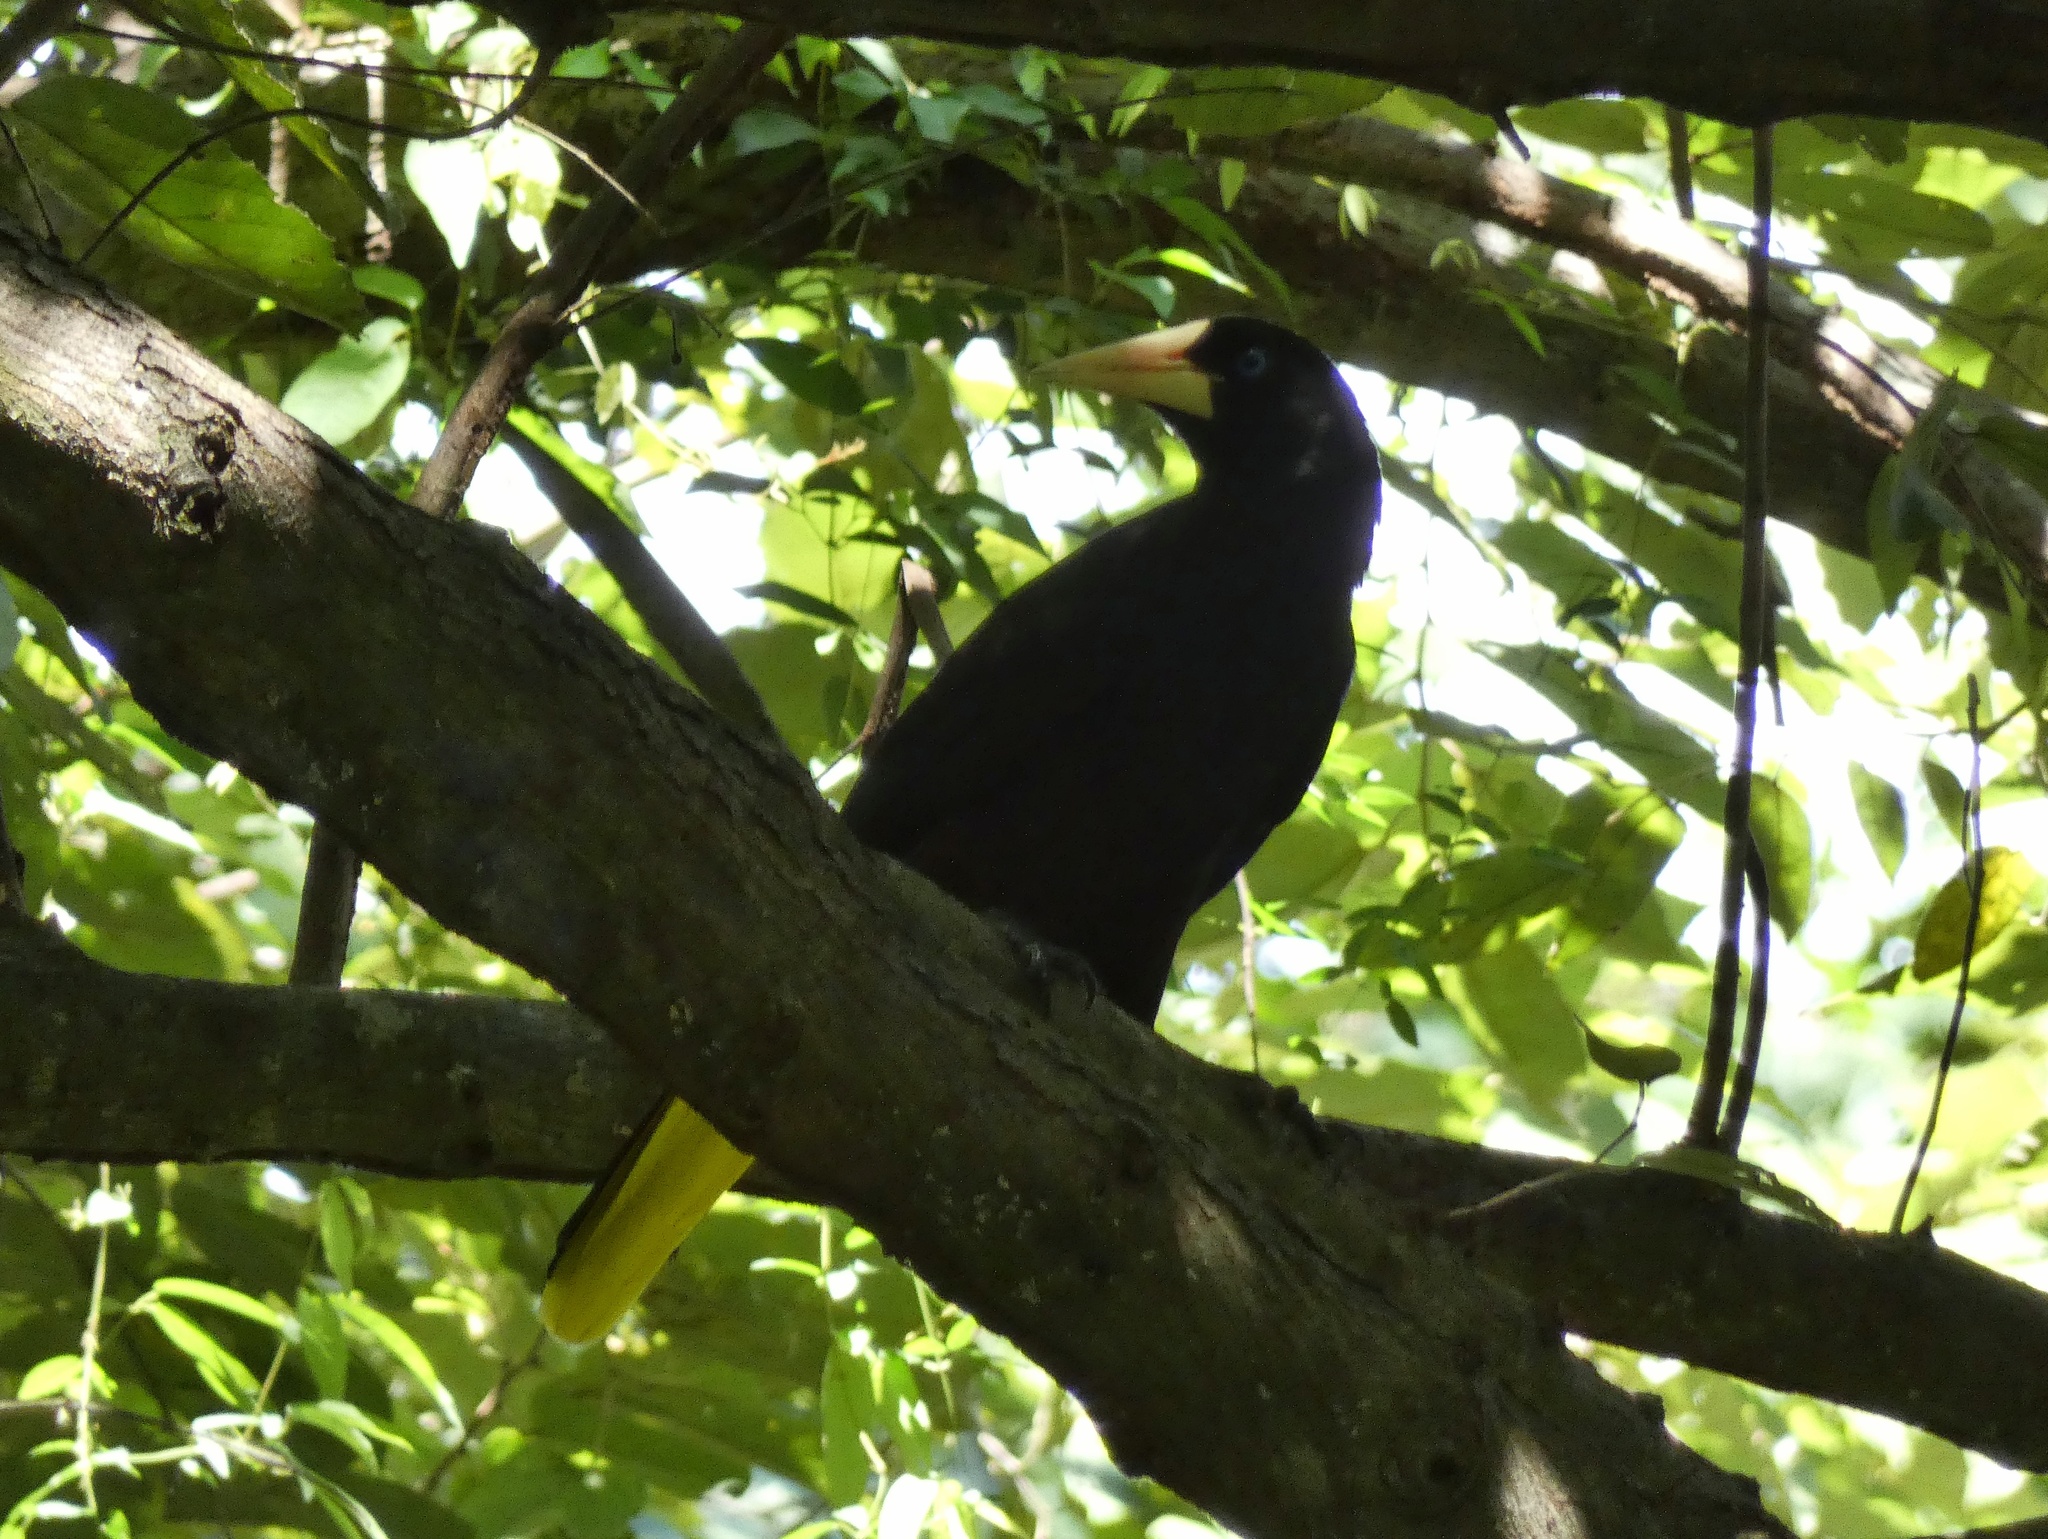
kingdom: Animalia
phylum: Chordata
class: Aves
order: Passeriformes
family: Icteridae
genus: Psarocolius
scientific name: Psarocolius decumanus
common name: Crested oropendola
